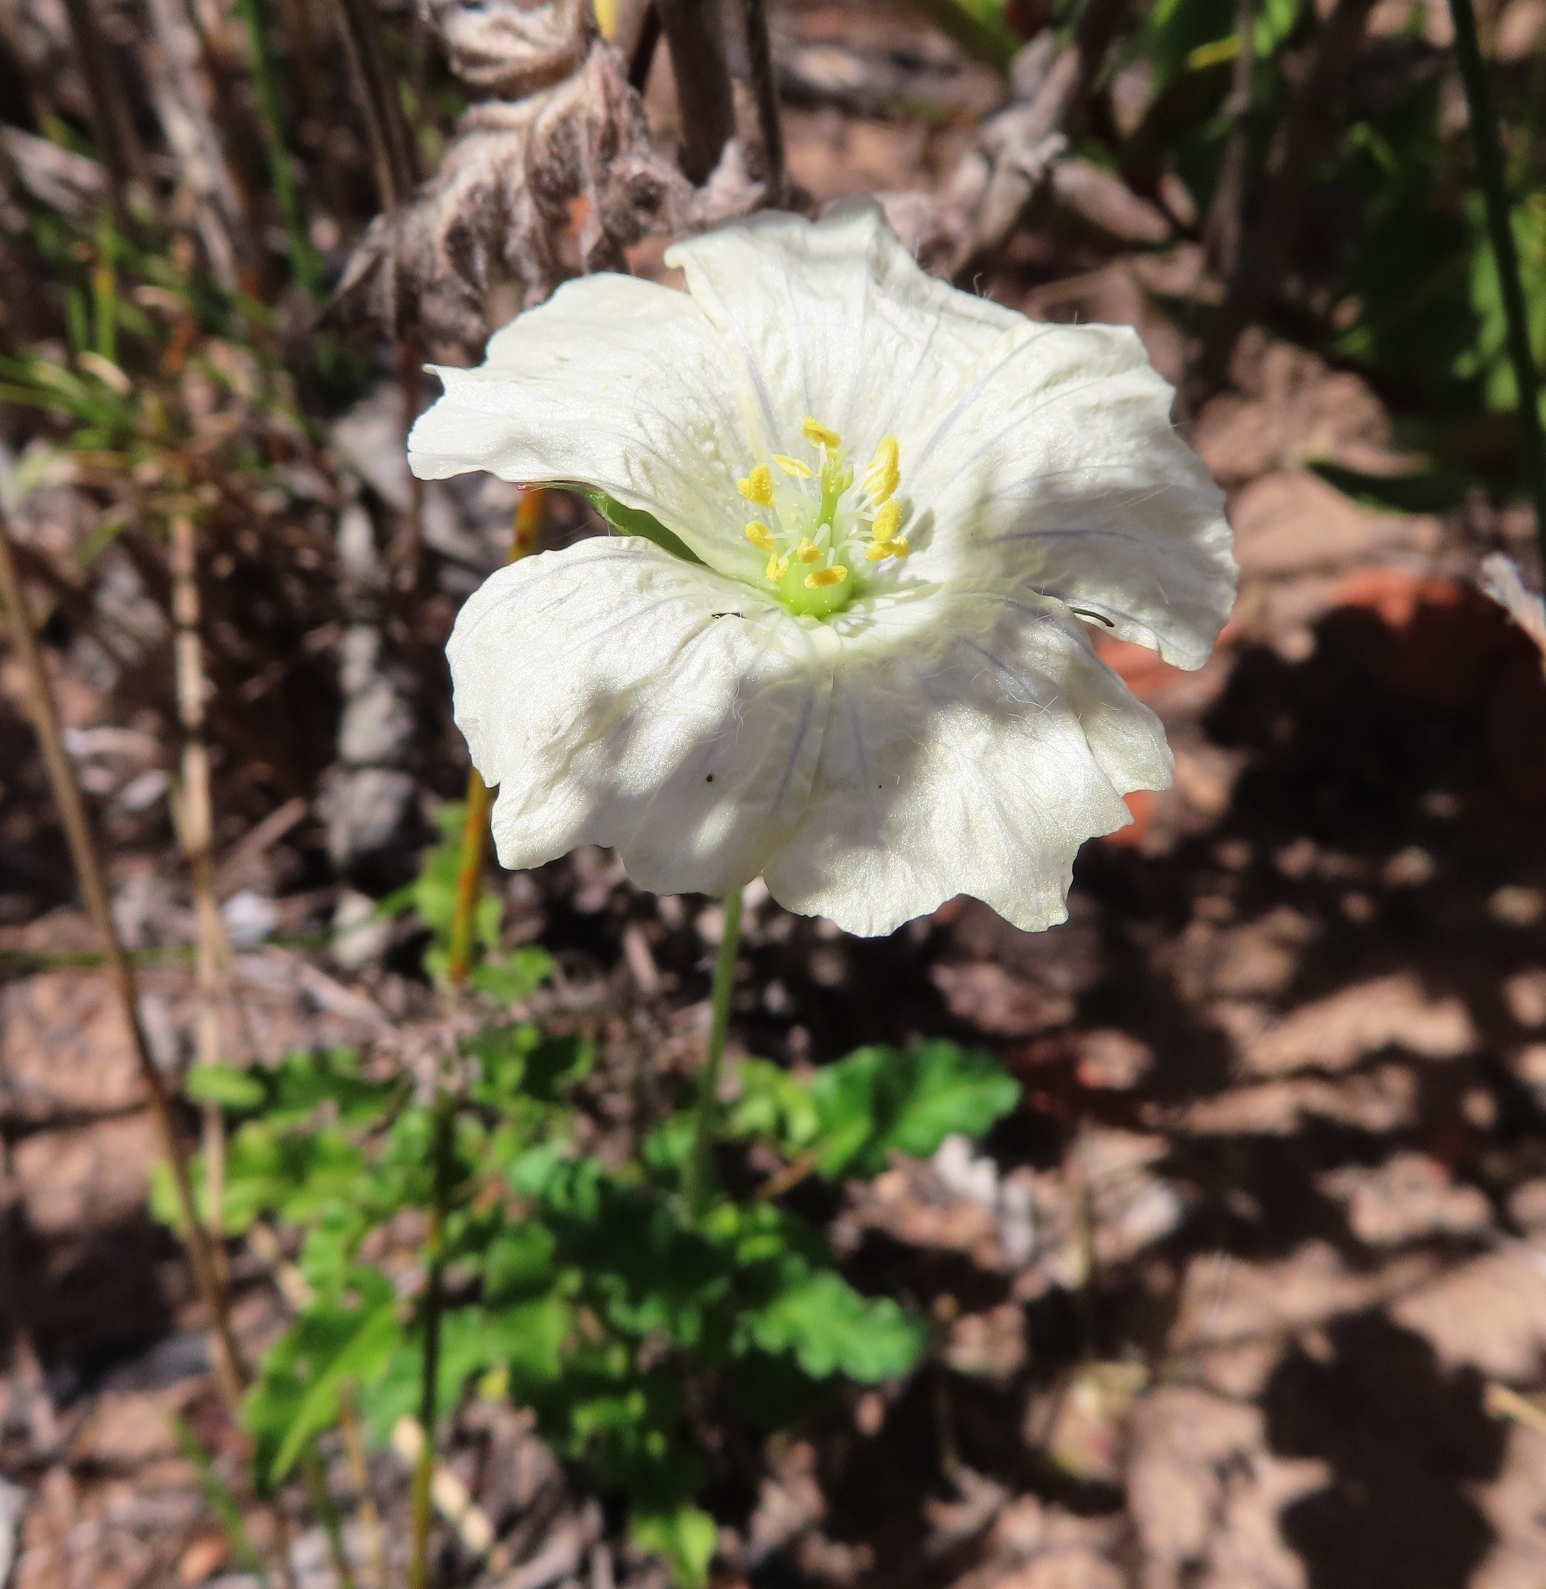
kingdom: Plantae
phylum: Tracheophyta
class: Magnoliopsida
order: Geraniales
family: Geraniaceae
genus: Monsonia
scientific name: Monsonia emarginata
